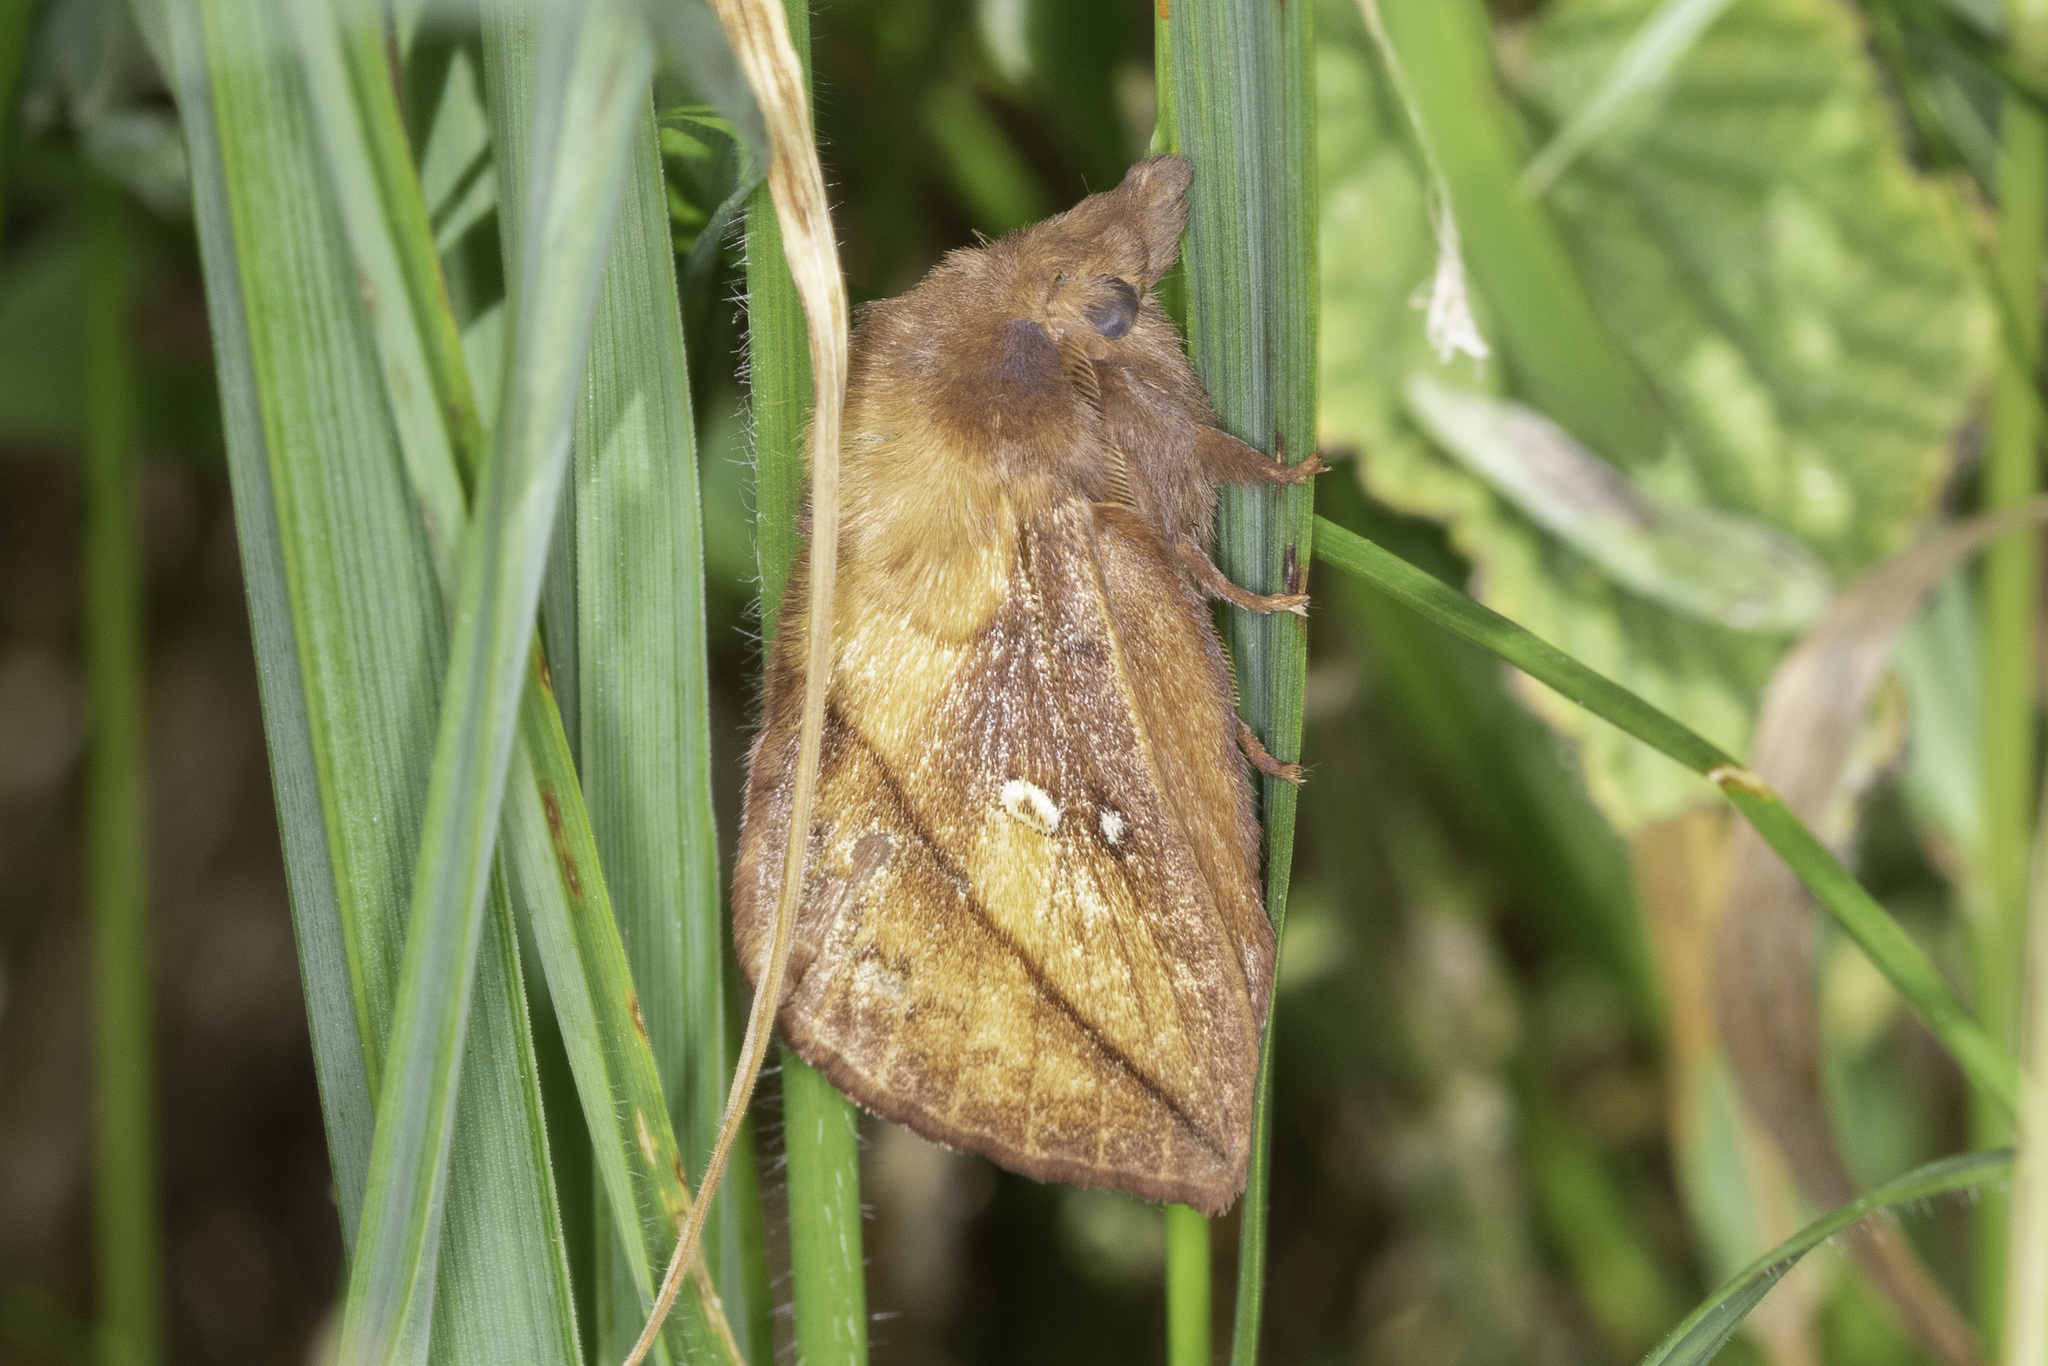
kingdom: Animalia
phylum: Arthropoda
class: Insecta
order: Lepidoptera
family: Lasiocampidae
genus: Euthrix
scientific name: Euthrix potatoria
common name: Drinker
